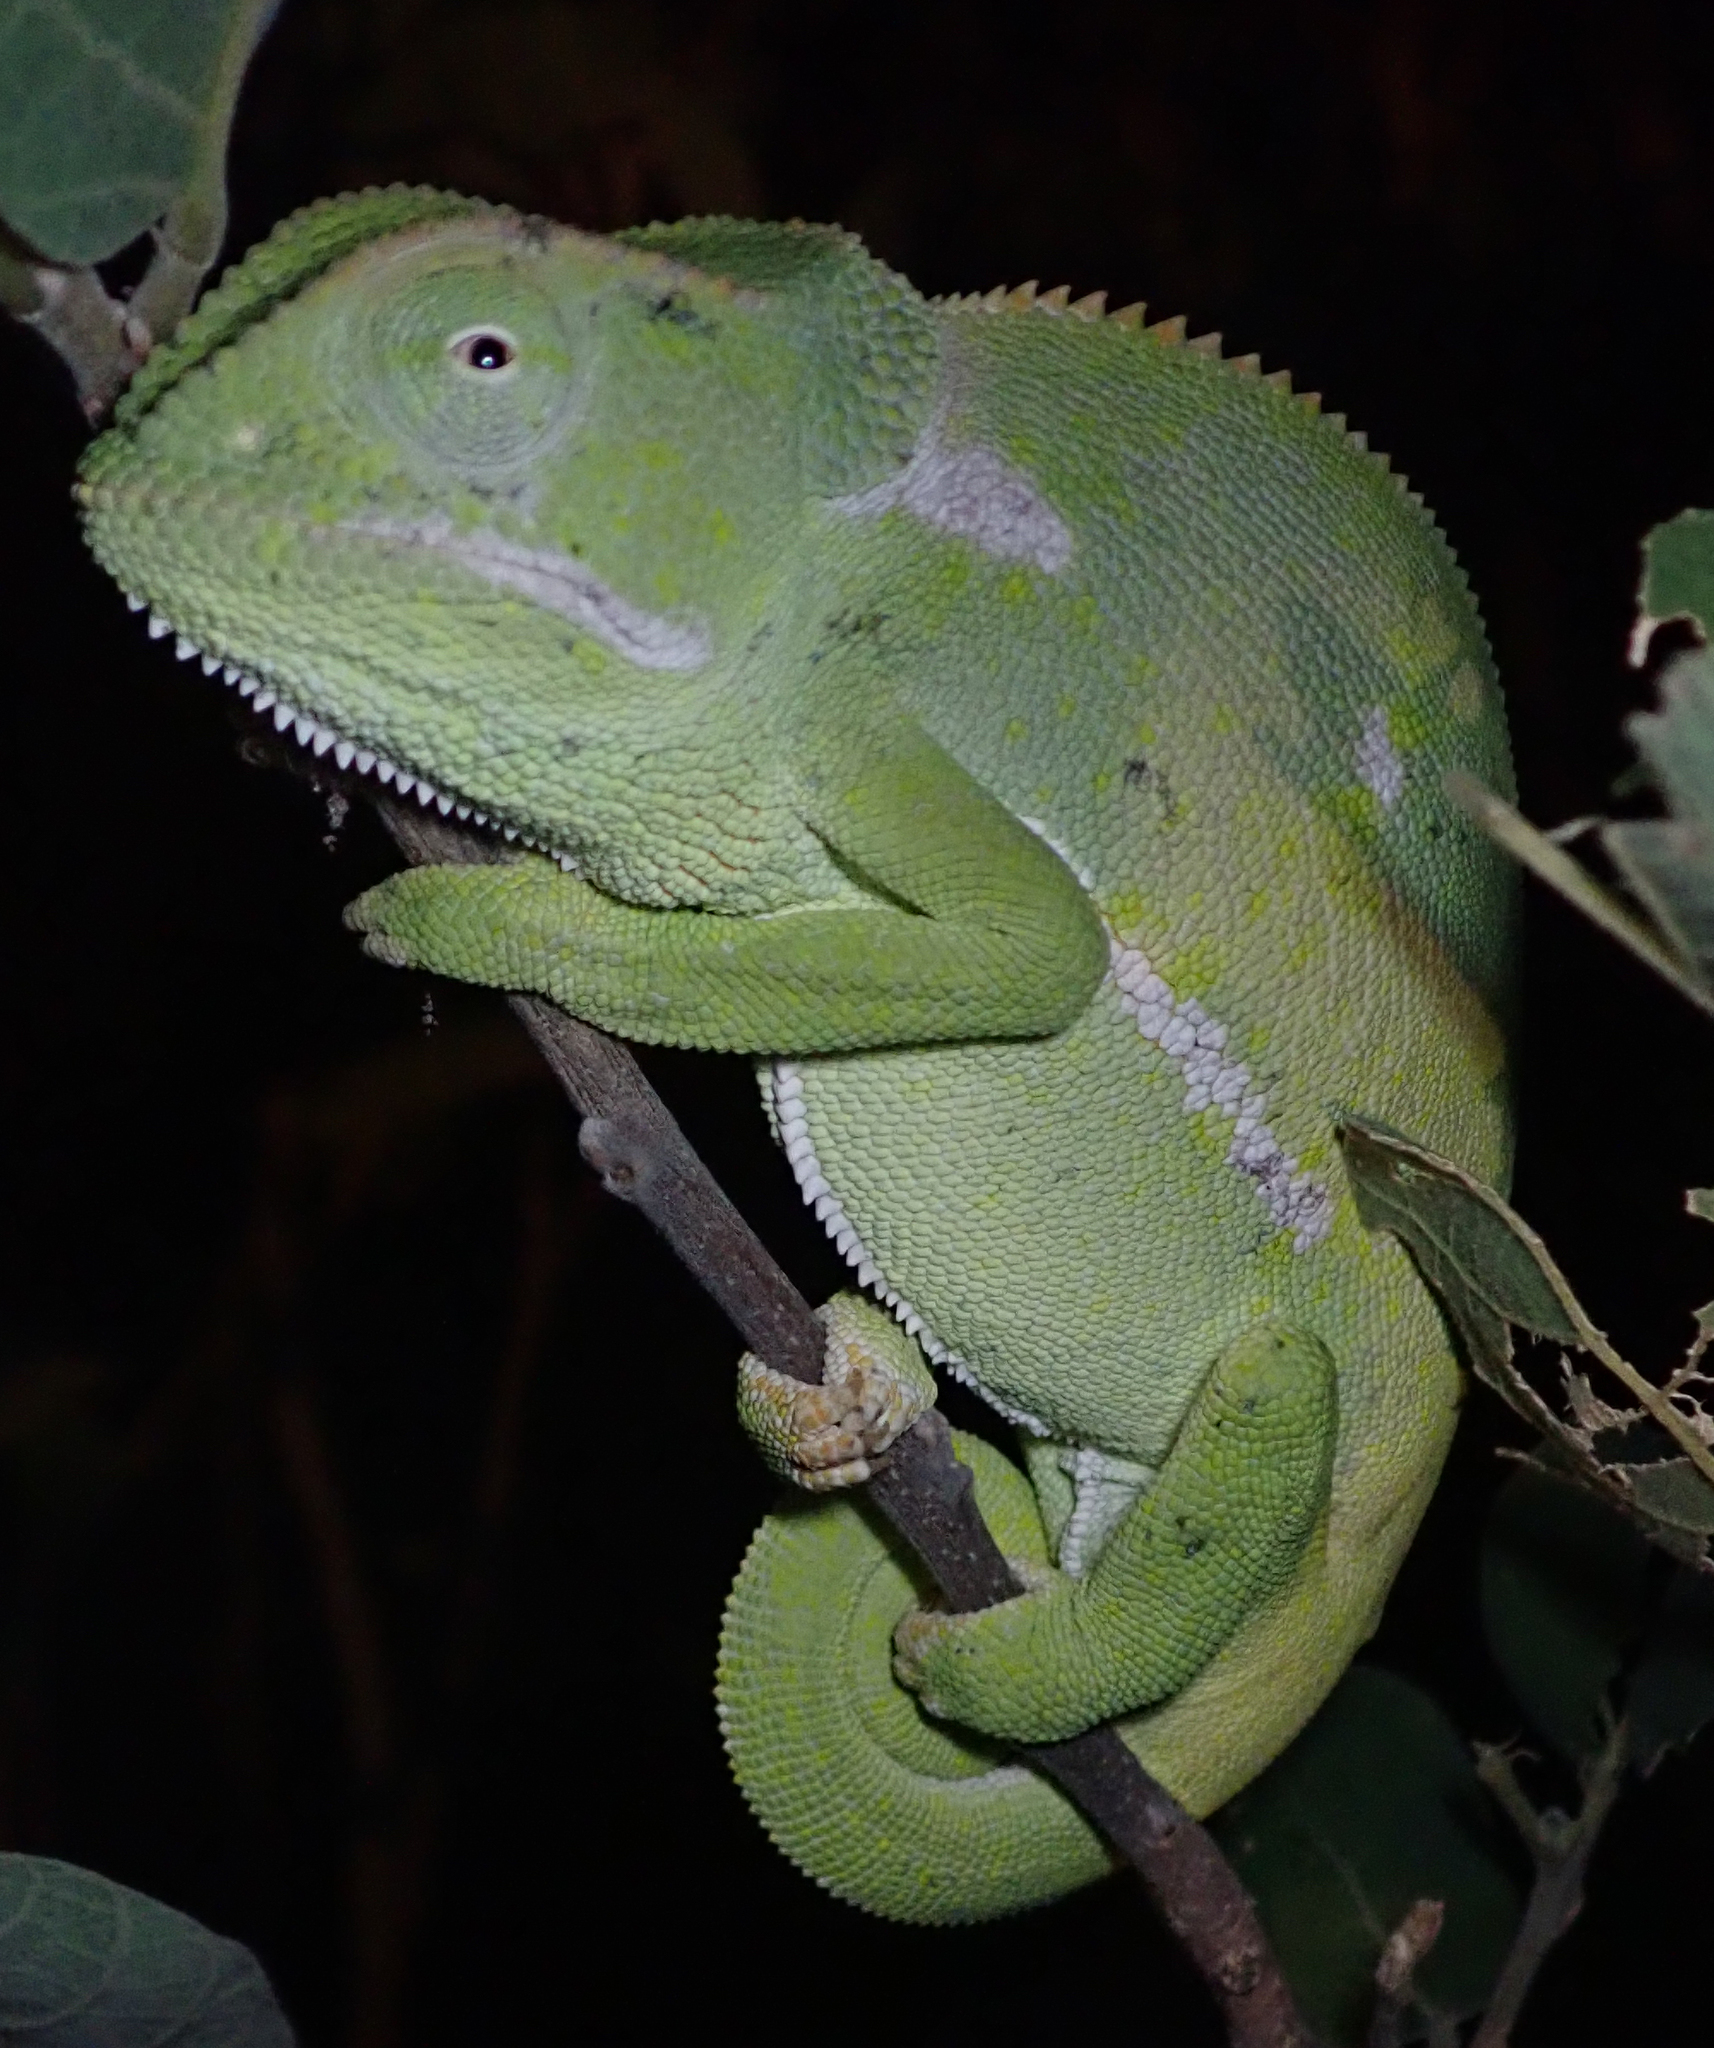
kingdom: Animalia
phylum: Chordata
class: Squamata
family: Chamaeleonidae
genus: Chamaeleo
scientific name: Chamaeleo dilepis
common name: Flapneck chameleon
